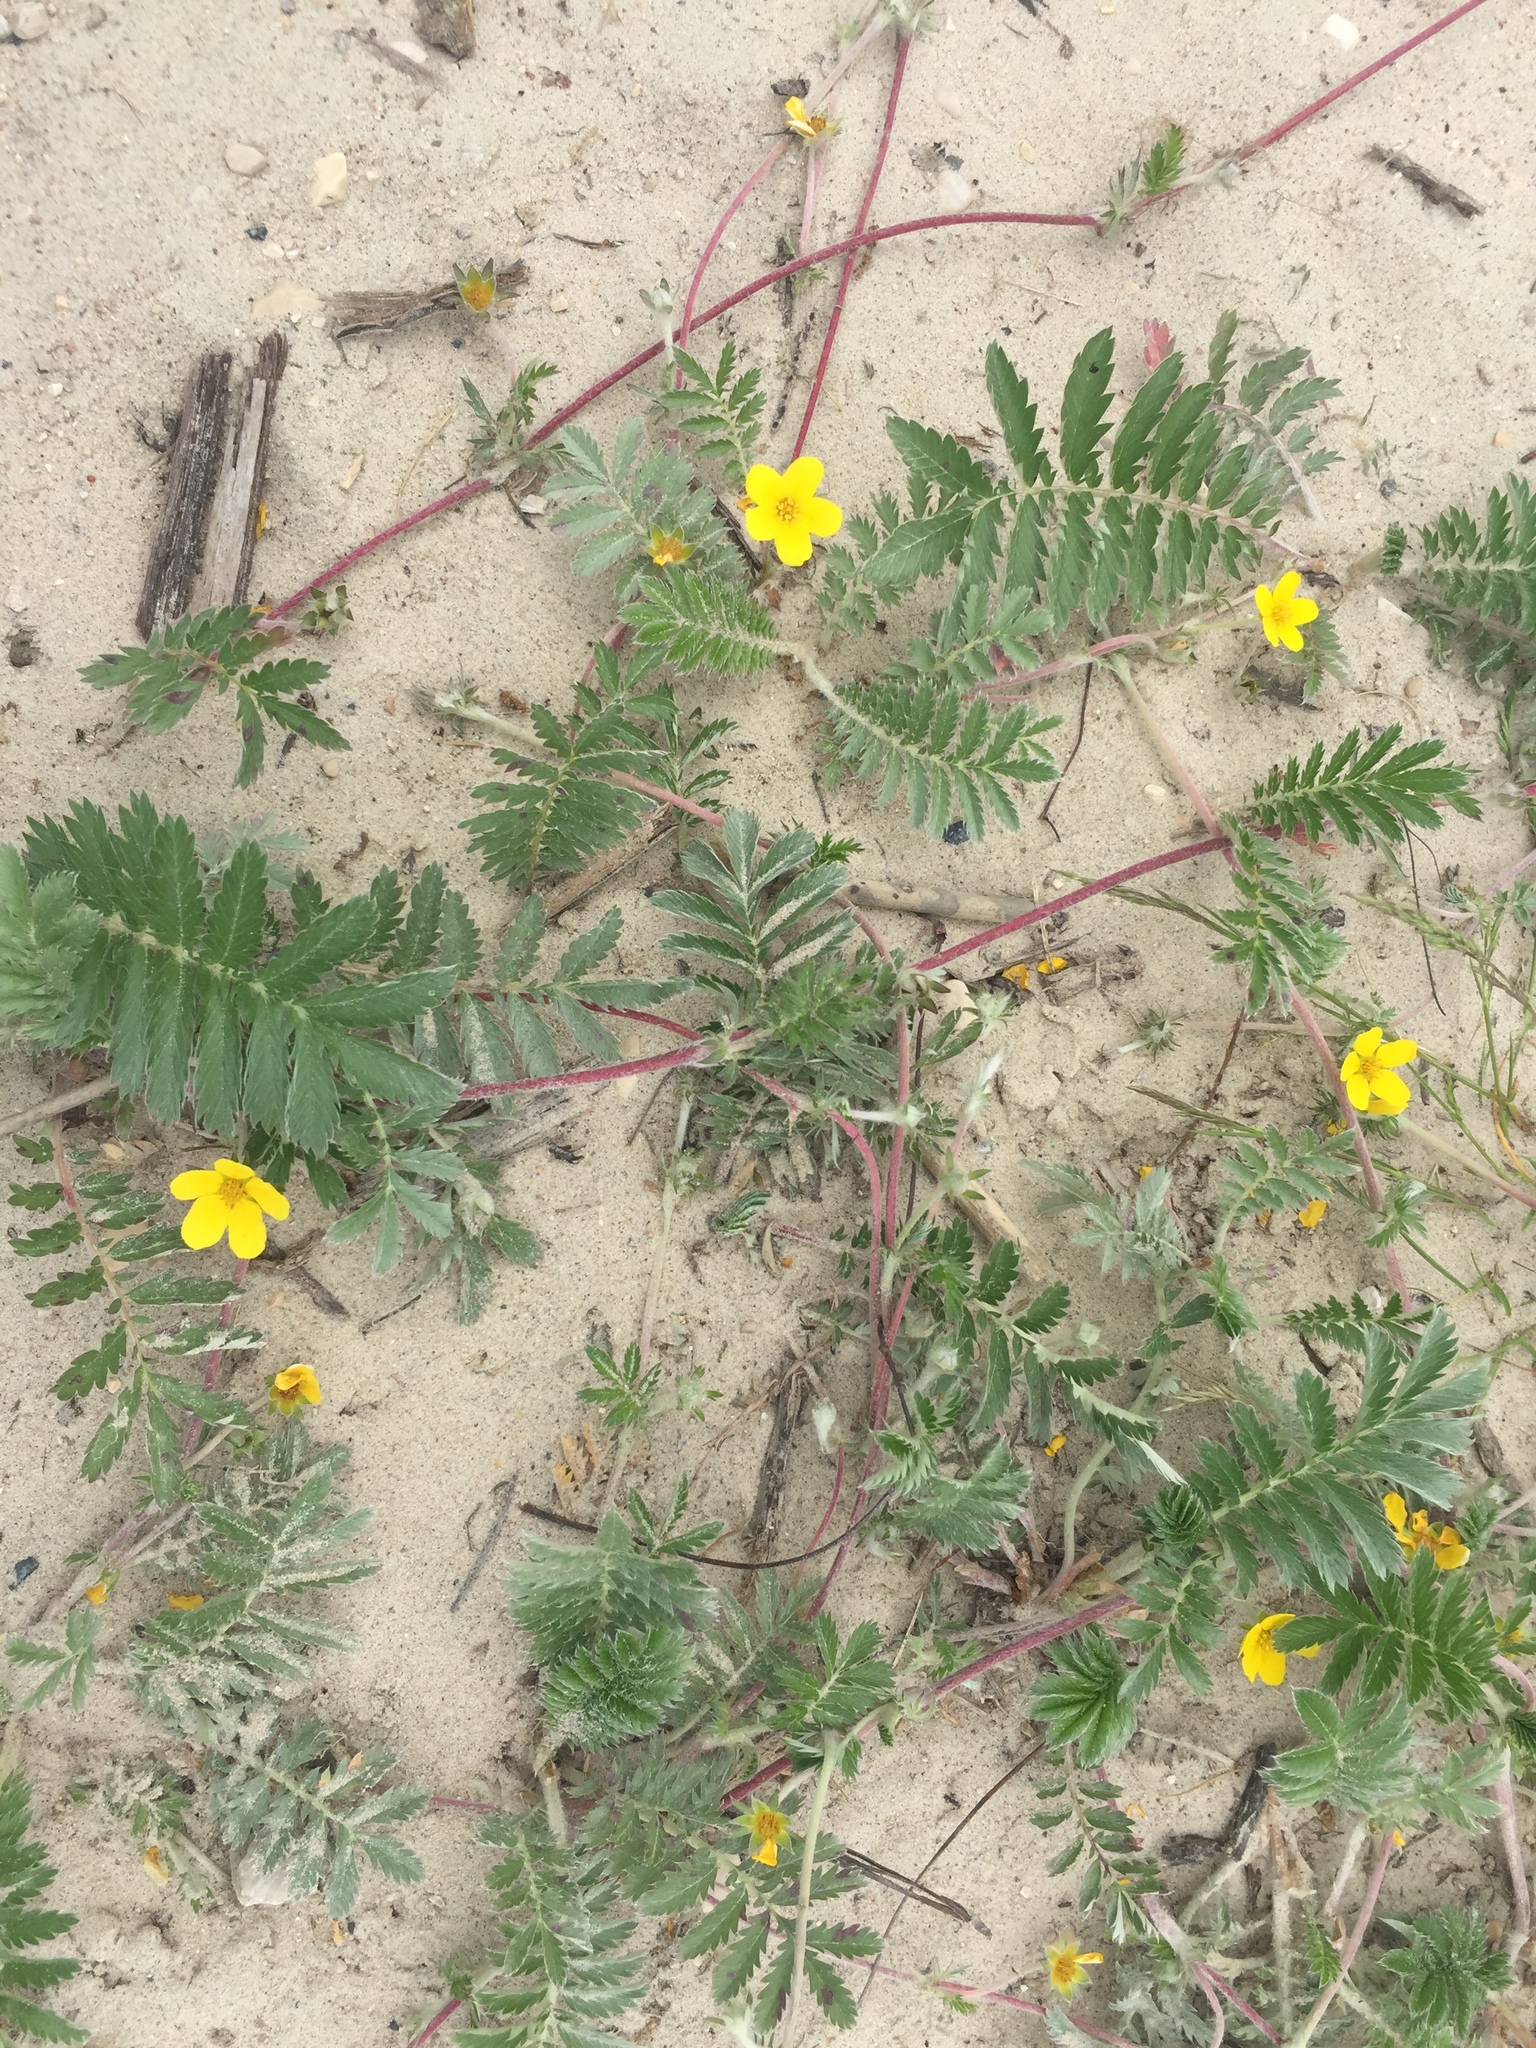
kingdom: Plantae
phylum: Tracheophyta
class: Magnoliopsida
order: Rosales
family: Rosaceae
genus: Argentina
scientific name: Argentina anserina
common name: Common silverweed
